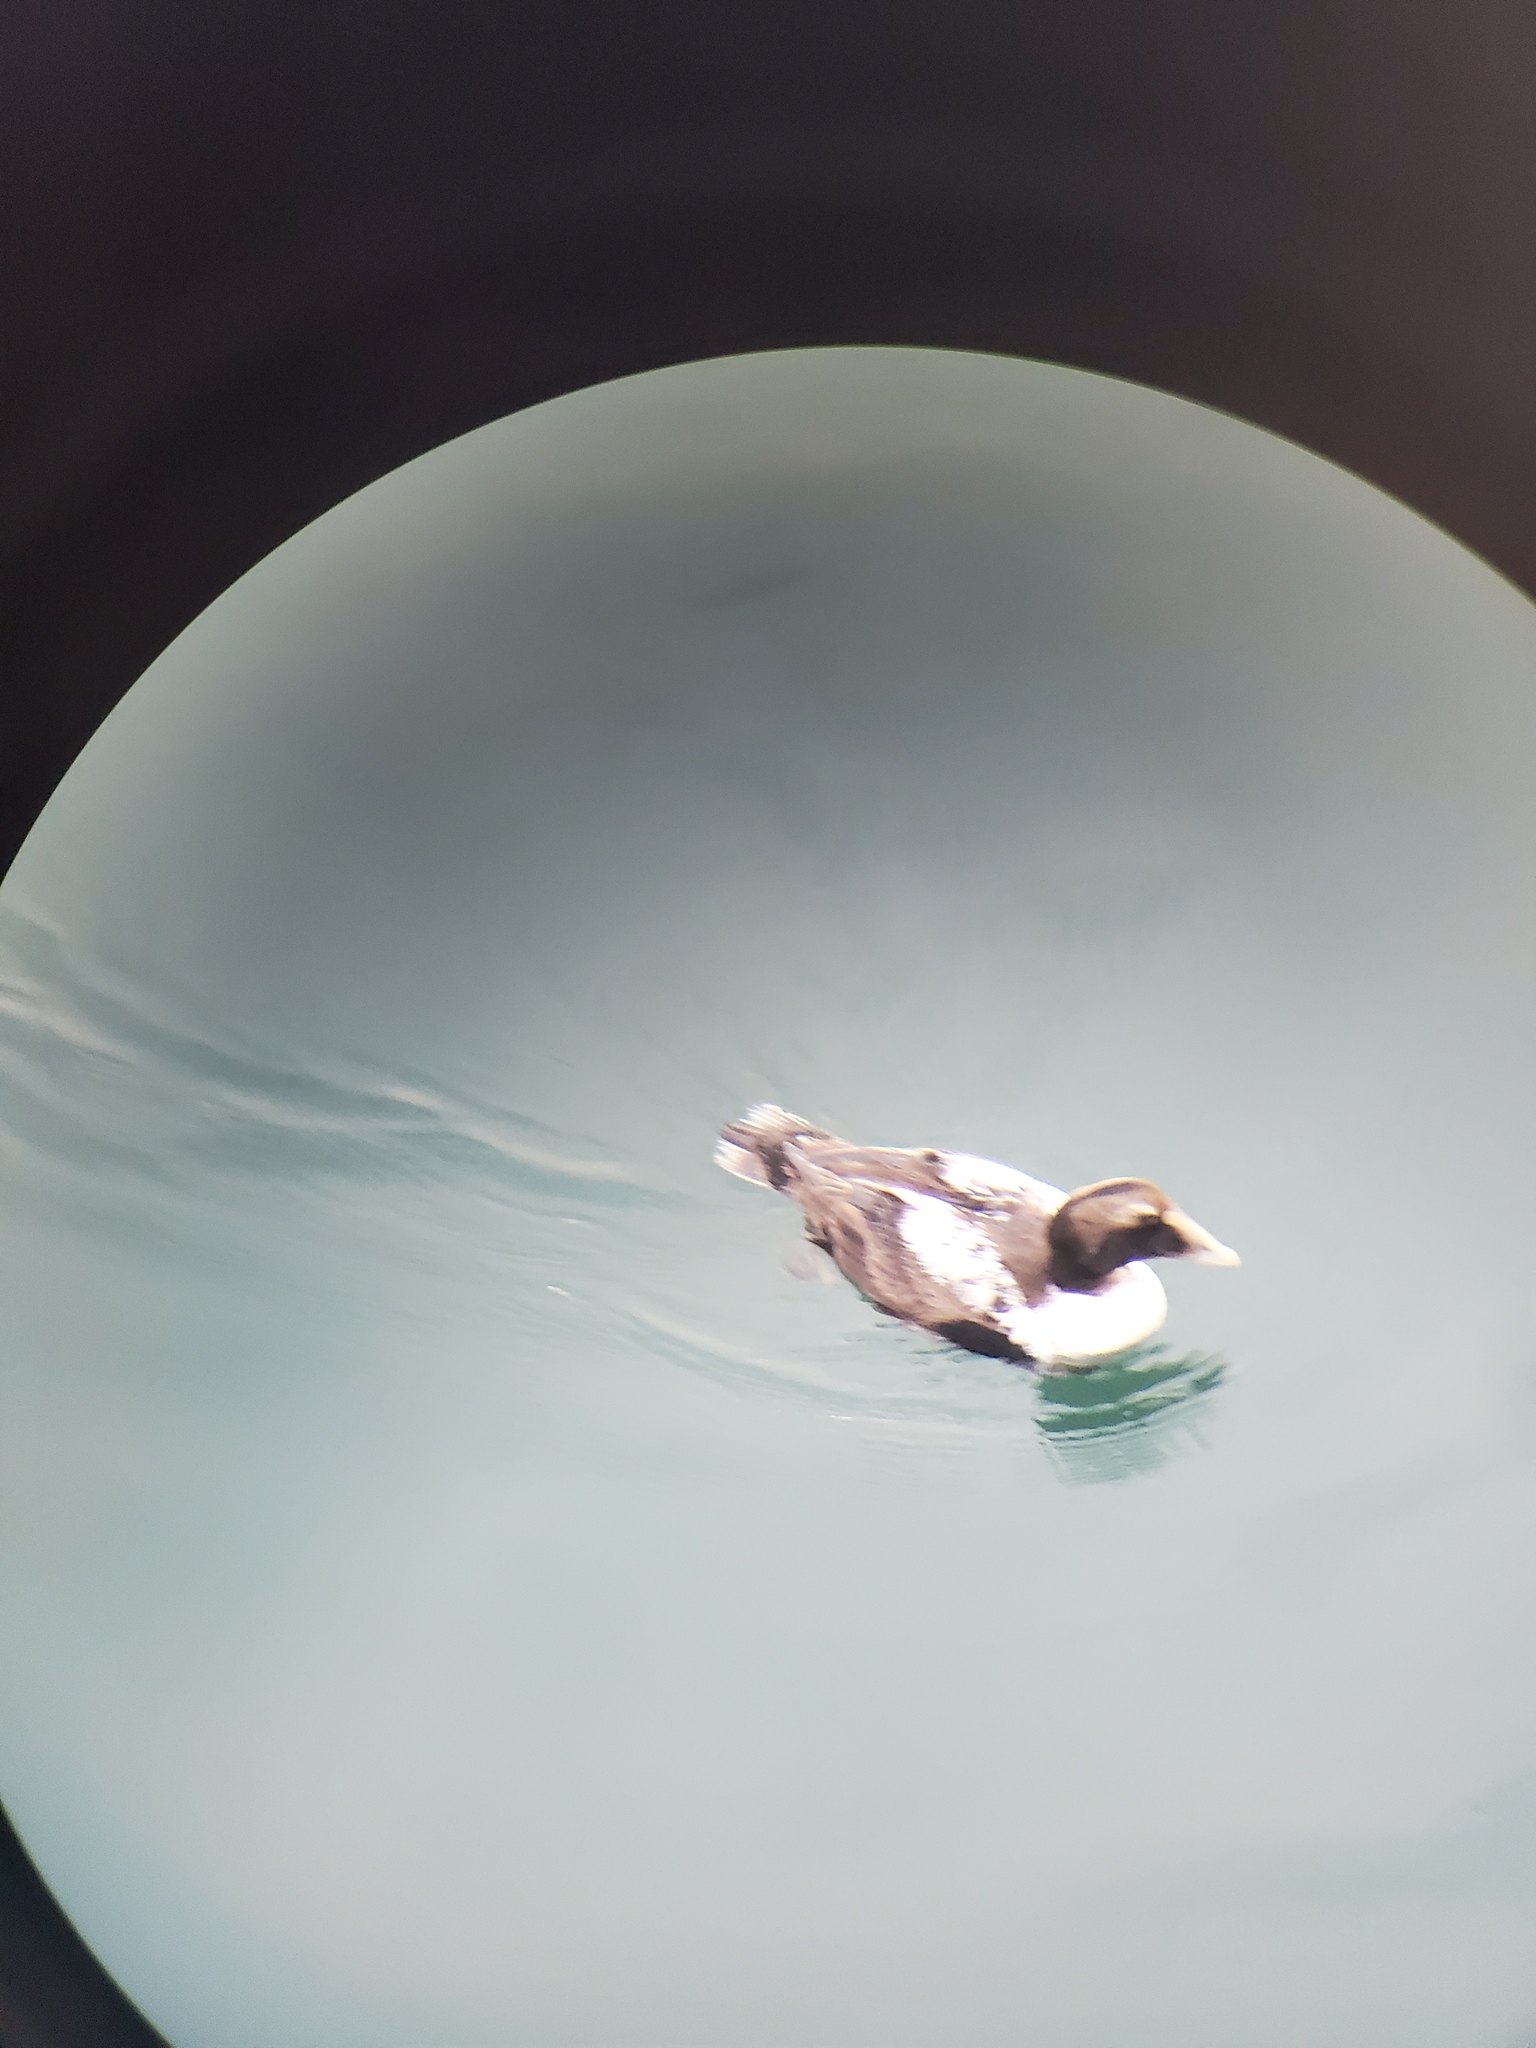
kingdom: Animalia
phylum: Chordata
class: Aves
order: Anseriformes
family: Anatidae
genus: Somateria
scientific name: Somateria mollissima
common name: Common eider
